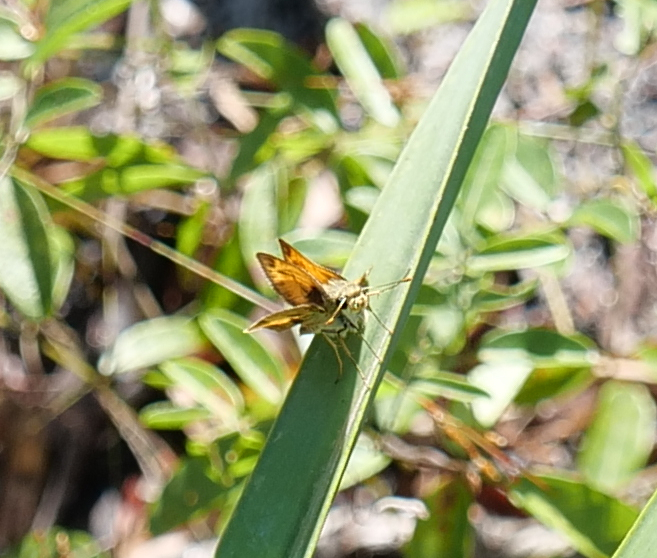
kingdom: Animalia
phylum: Arthropoda
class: Insecta
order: Lepidoptera
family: Hesperiidae
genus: Polites
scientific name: Polites vibex
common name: Whirlabout
